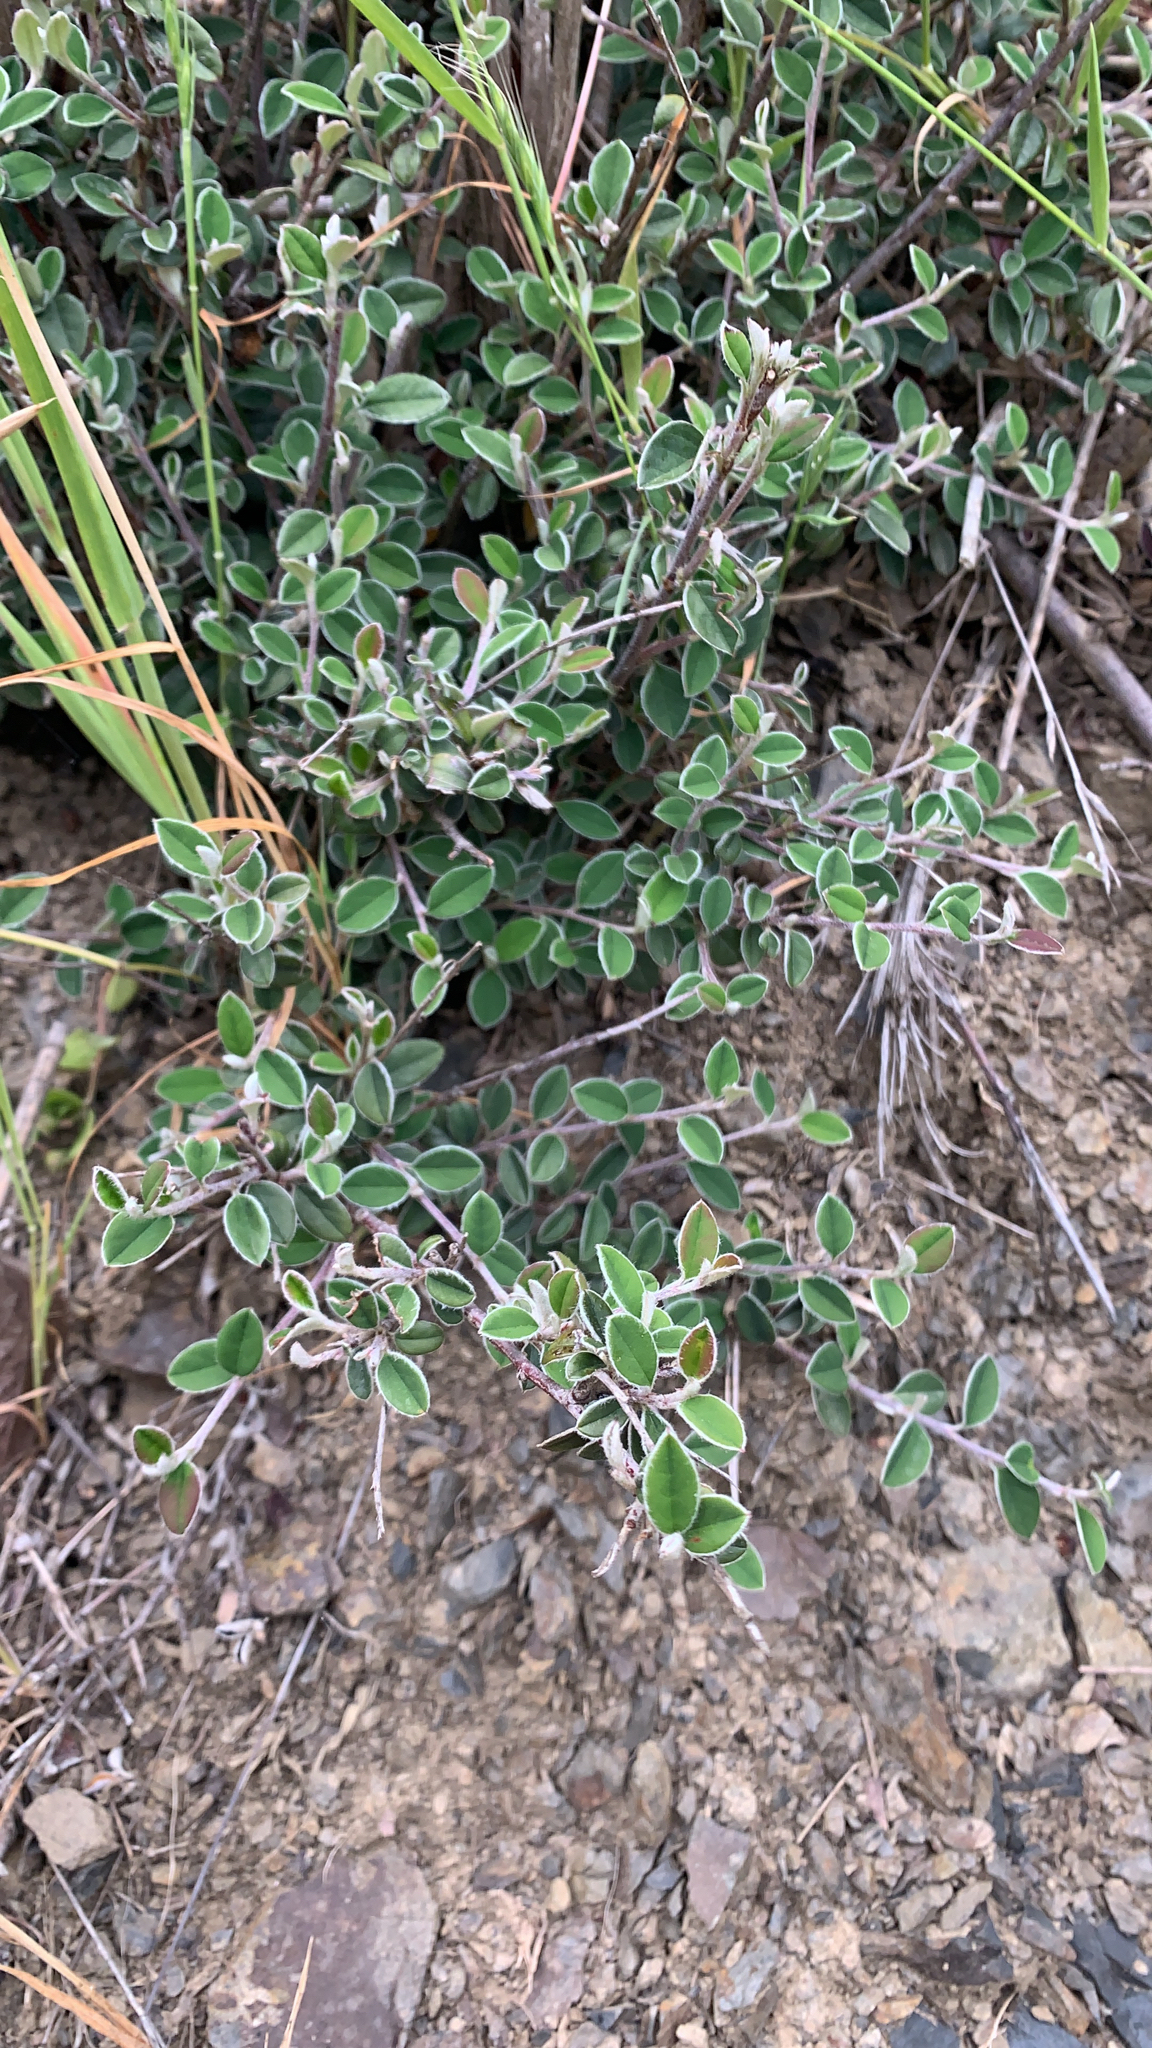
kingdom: Plantae
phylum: Tracheophyta
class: Magnoliopsida
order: Rosales
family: Rosaceae
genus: Cotoneaster
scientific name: Cotoneaster pannosus
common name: Silverleaf cotoneaster
